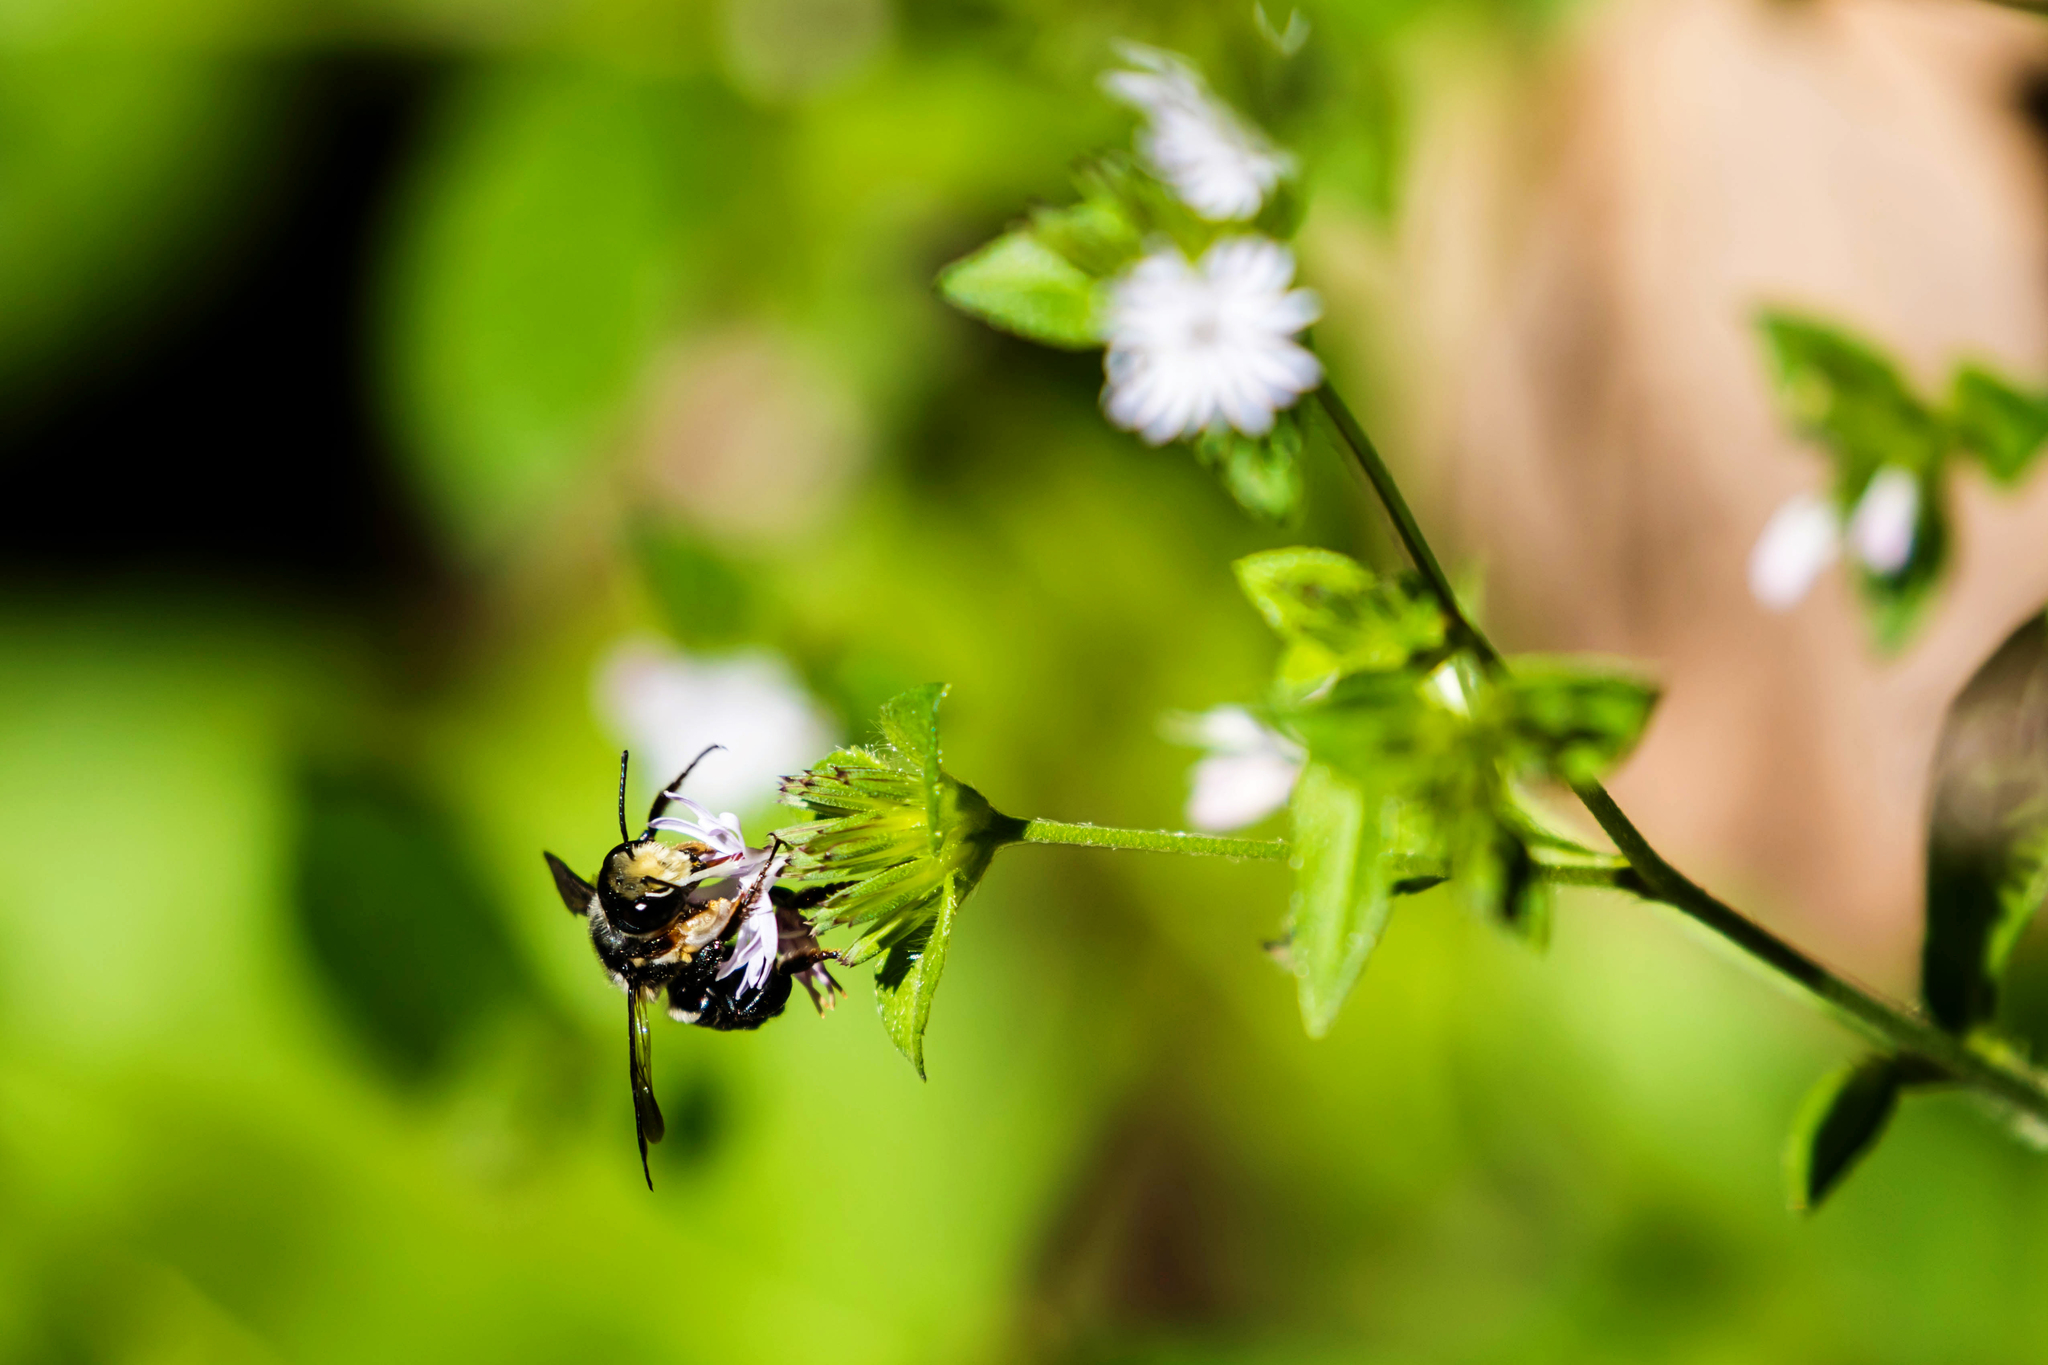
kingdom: Animalia
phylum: Arthropoda
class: Insecta
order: Hymenoptera
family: Megachilidae
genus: Megachile
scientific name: Megachile xylocopoides
